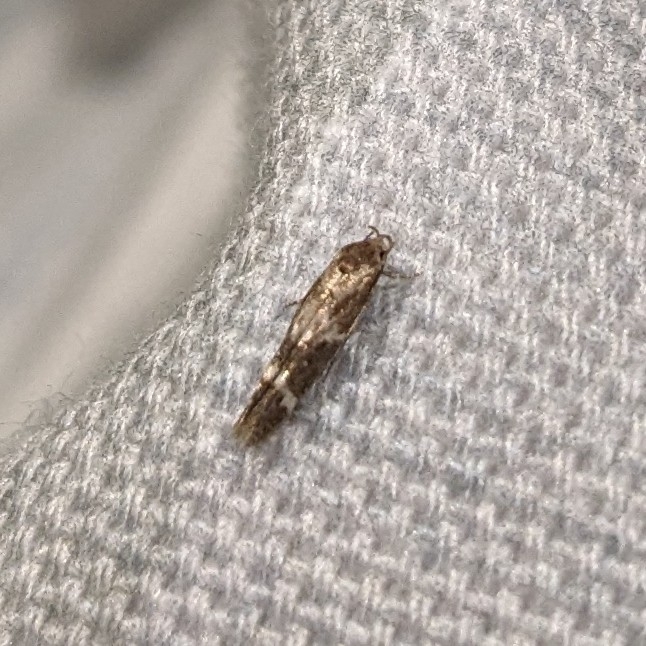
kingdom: Animalia
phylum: Arthropoda
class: Insecta
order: Lepidoptera
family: Momphidae
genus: Mompha
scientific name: Mompha subbistrigella
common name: Garden cosmet
